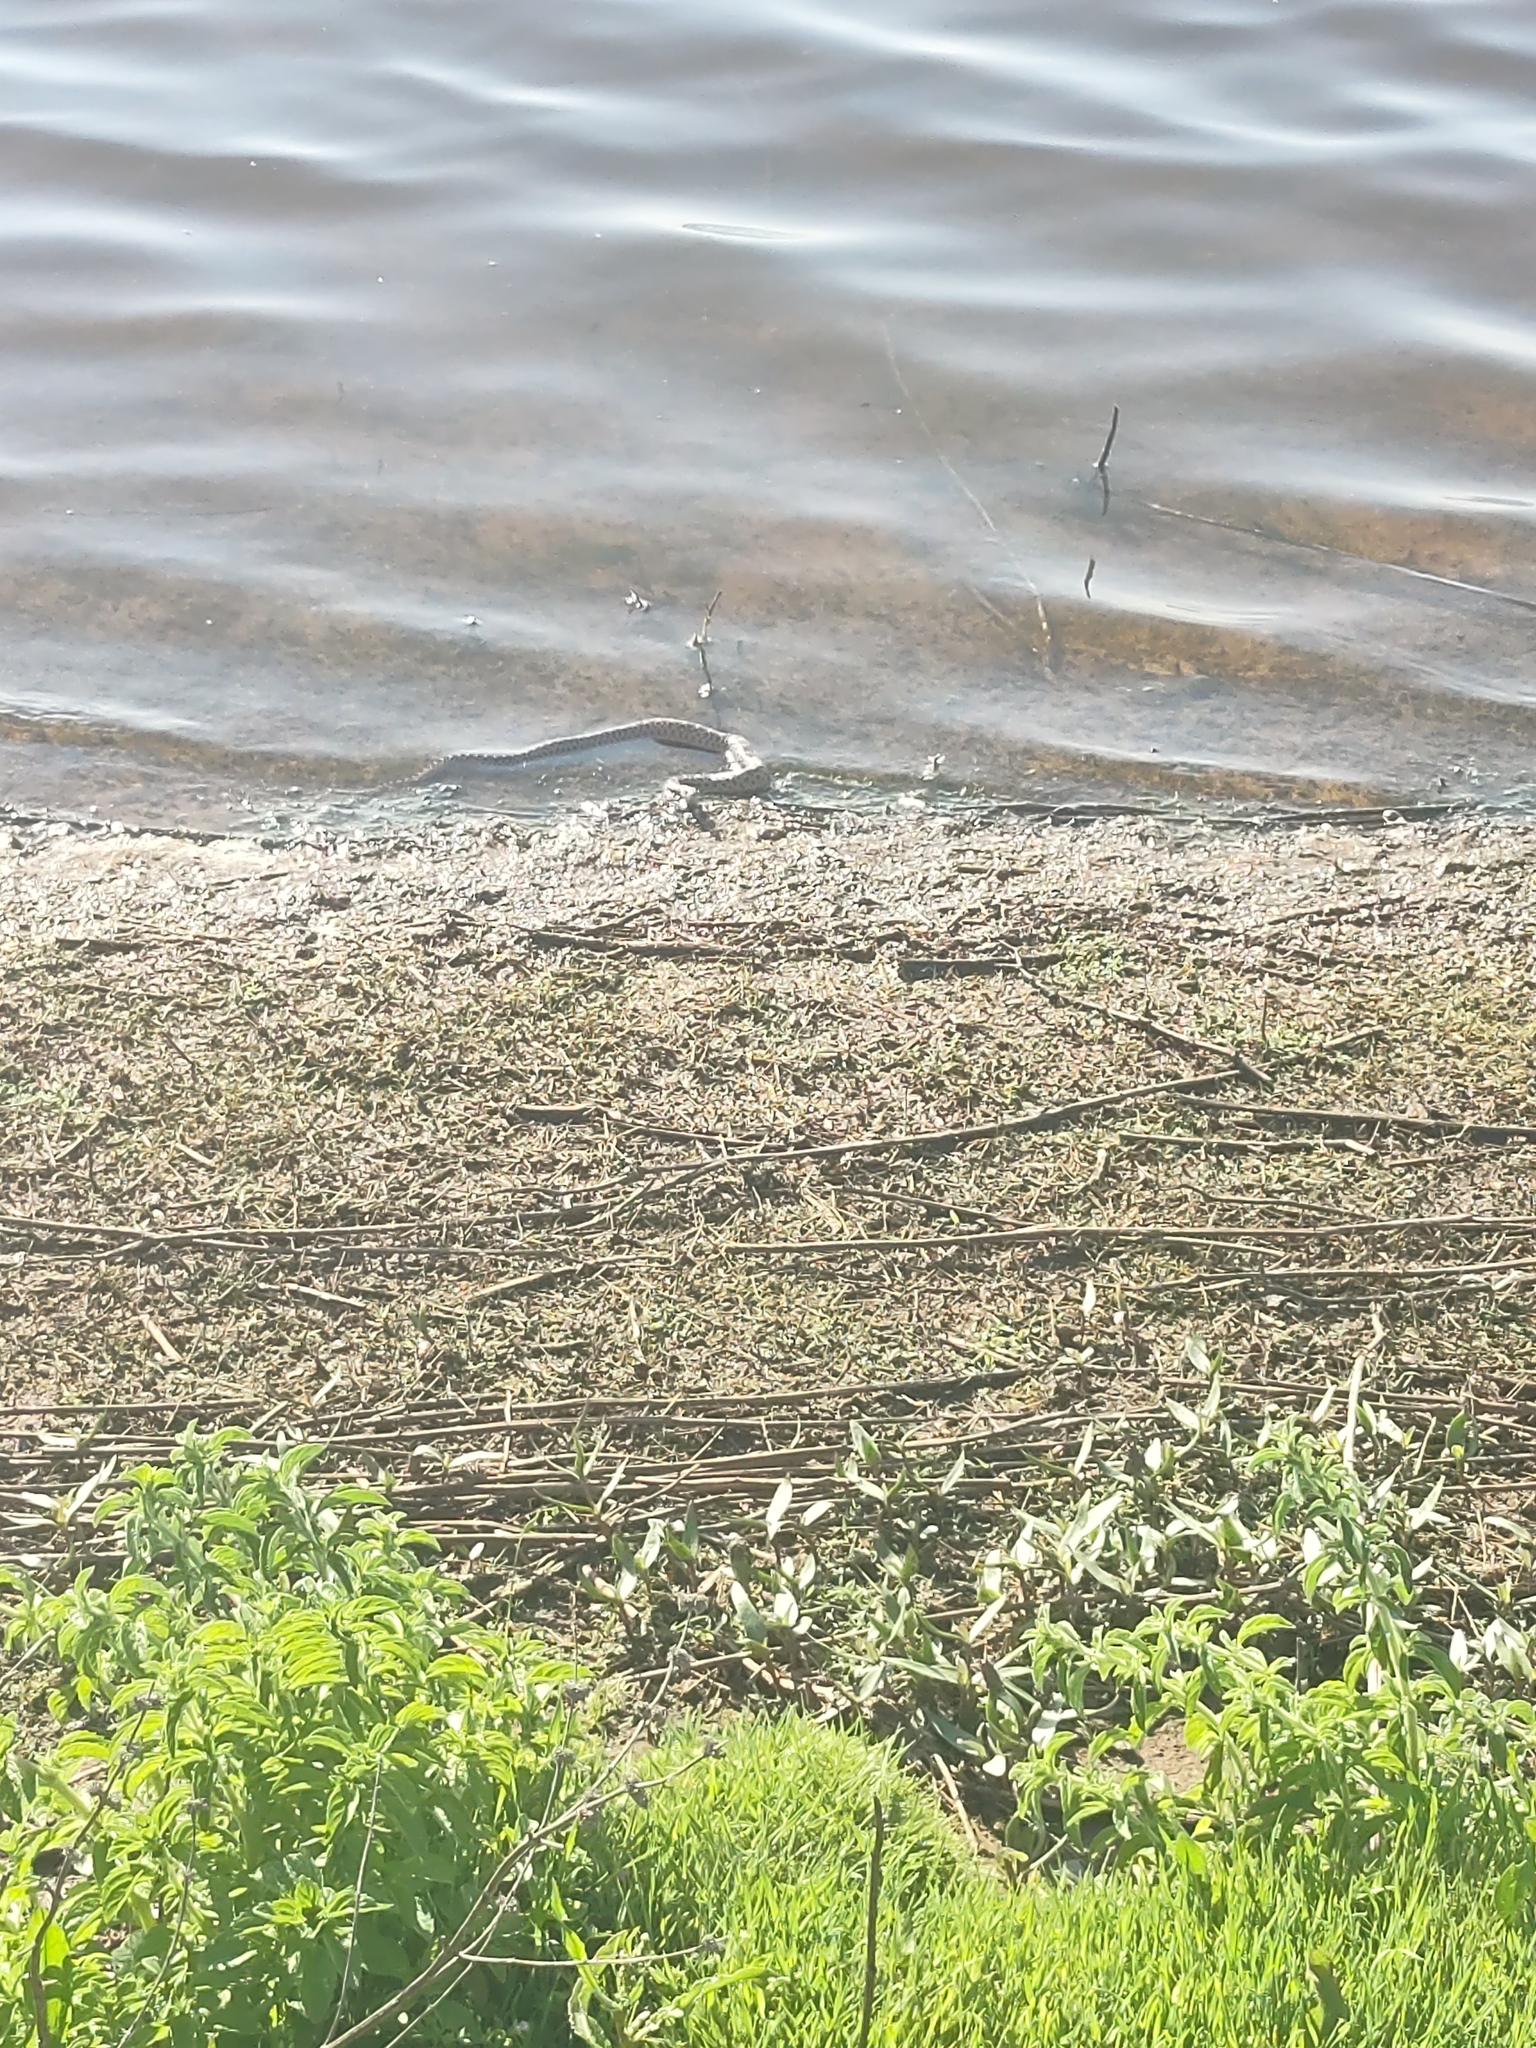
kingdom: Animalia
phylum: Chordata
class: Squamata
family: Colubridae
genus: Pituophis
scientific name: Pituophis catenifer
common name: Gopher snake
